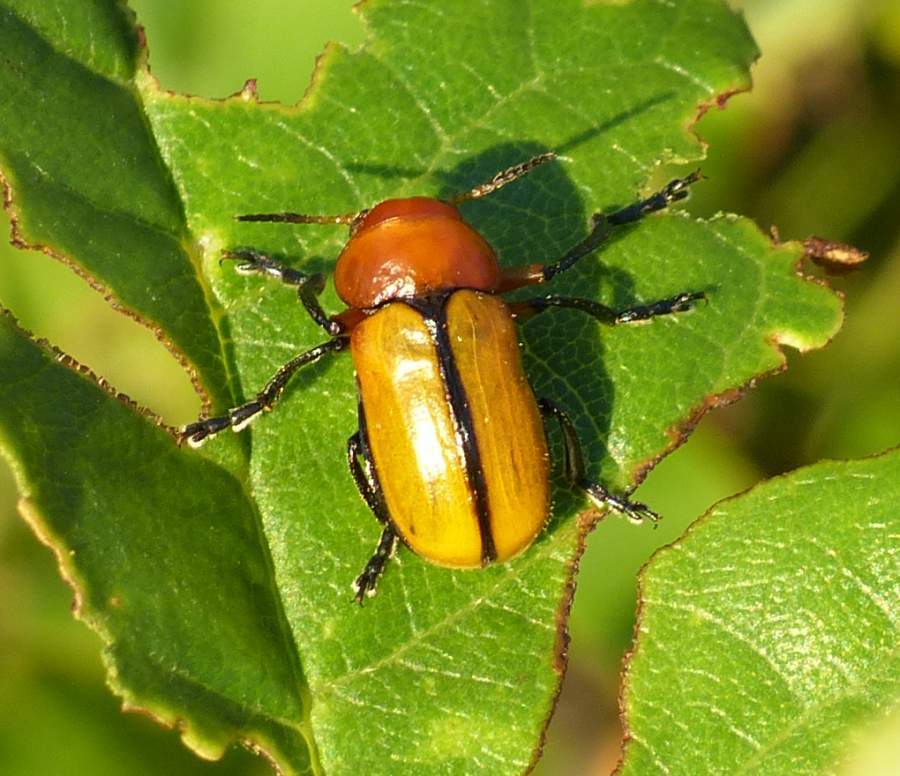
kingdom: Animalia
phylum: Arthropoda
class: Insecta
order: Coleoptera
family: Chrysomelidae
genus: Anomoea
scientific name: Anomoea laticlavia
